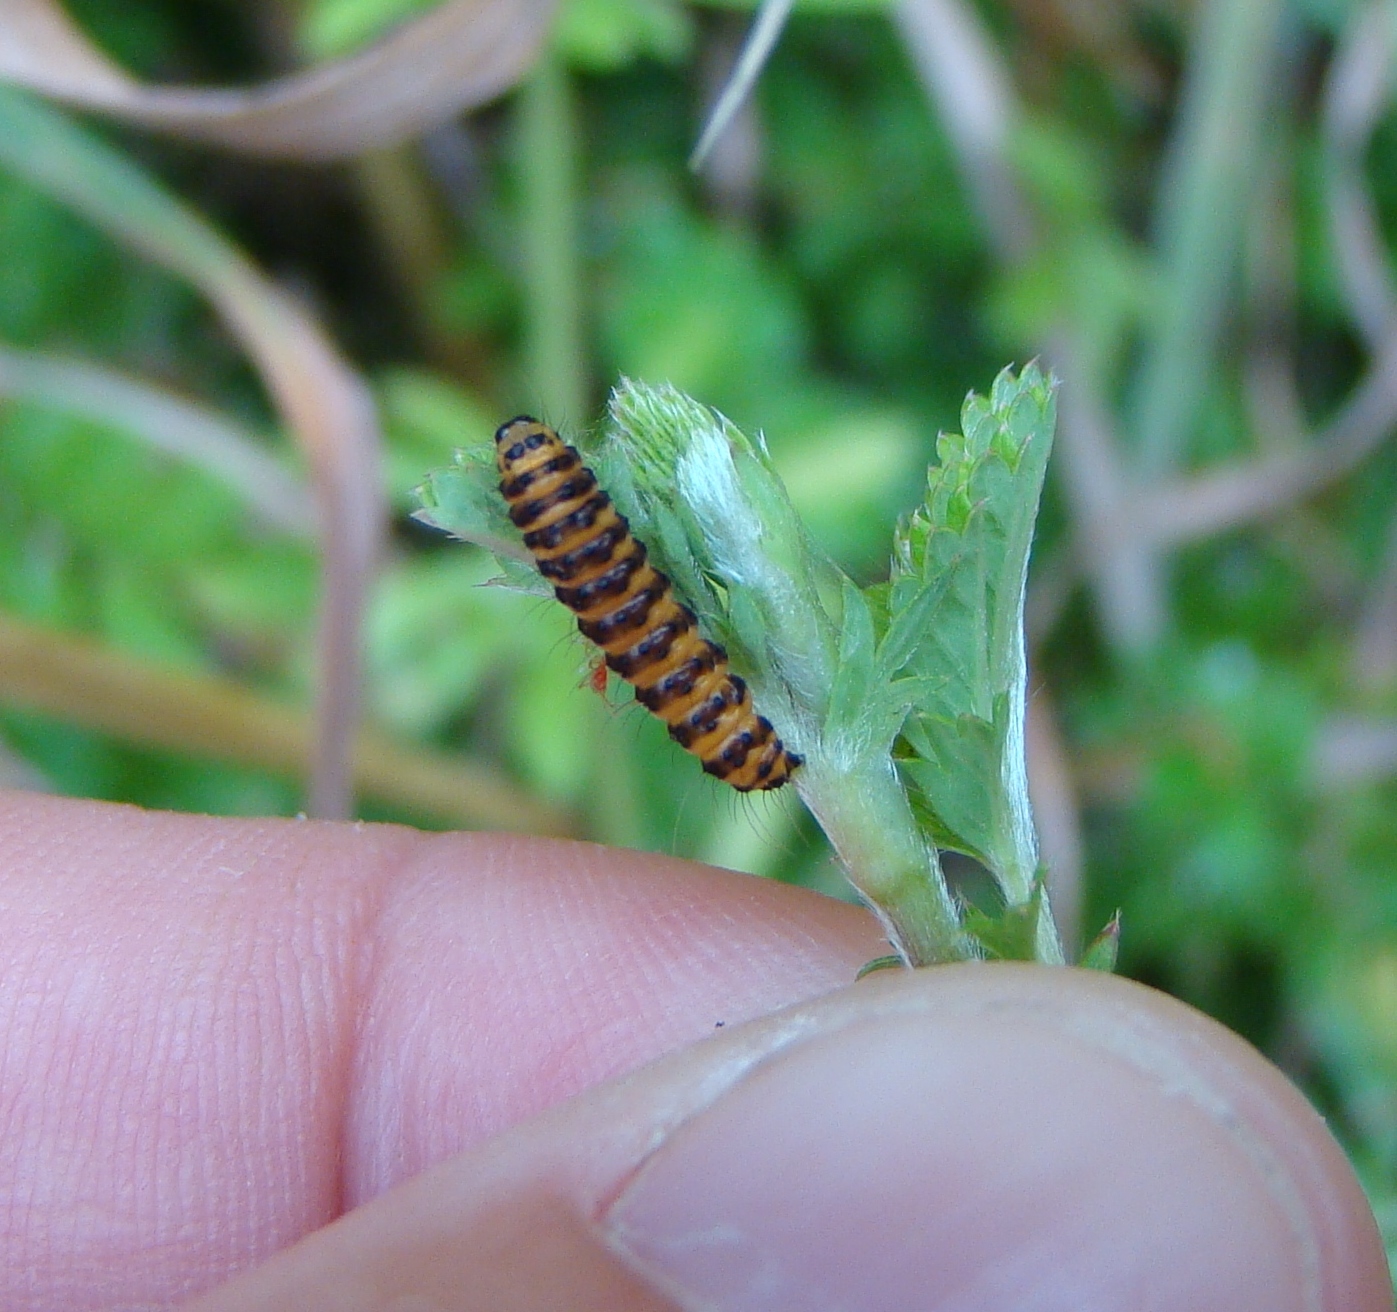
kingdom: Animalia
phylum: Arthropoda
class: Insecta
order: Lepidoptera
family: Erebidae
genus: Tyria
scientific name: Tyria jacobaeae
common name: Cinnabar
